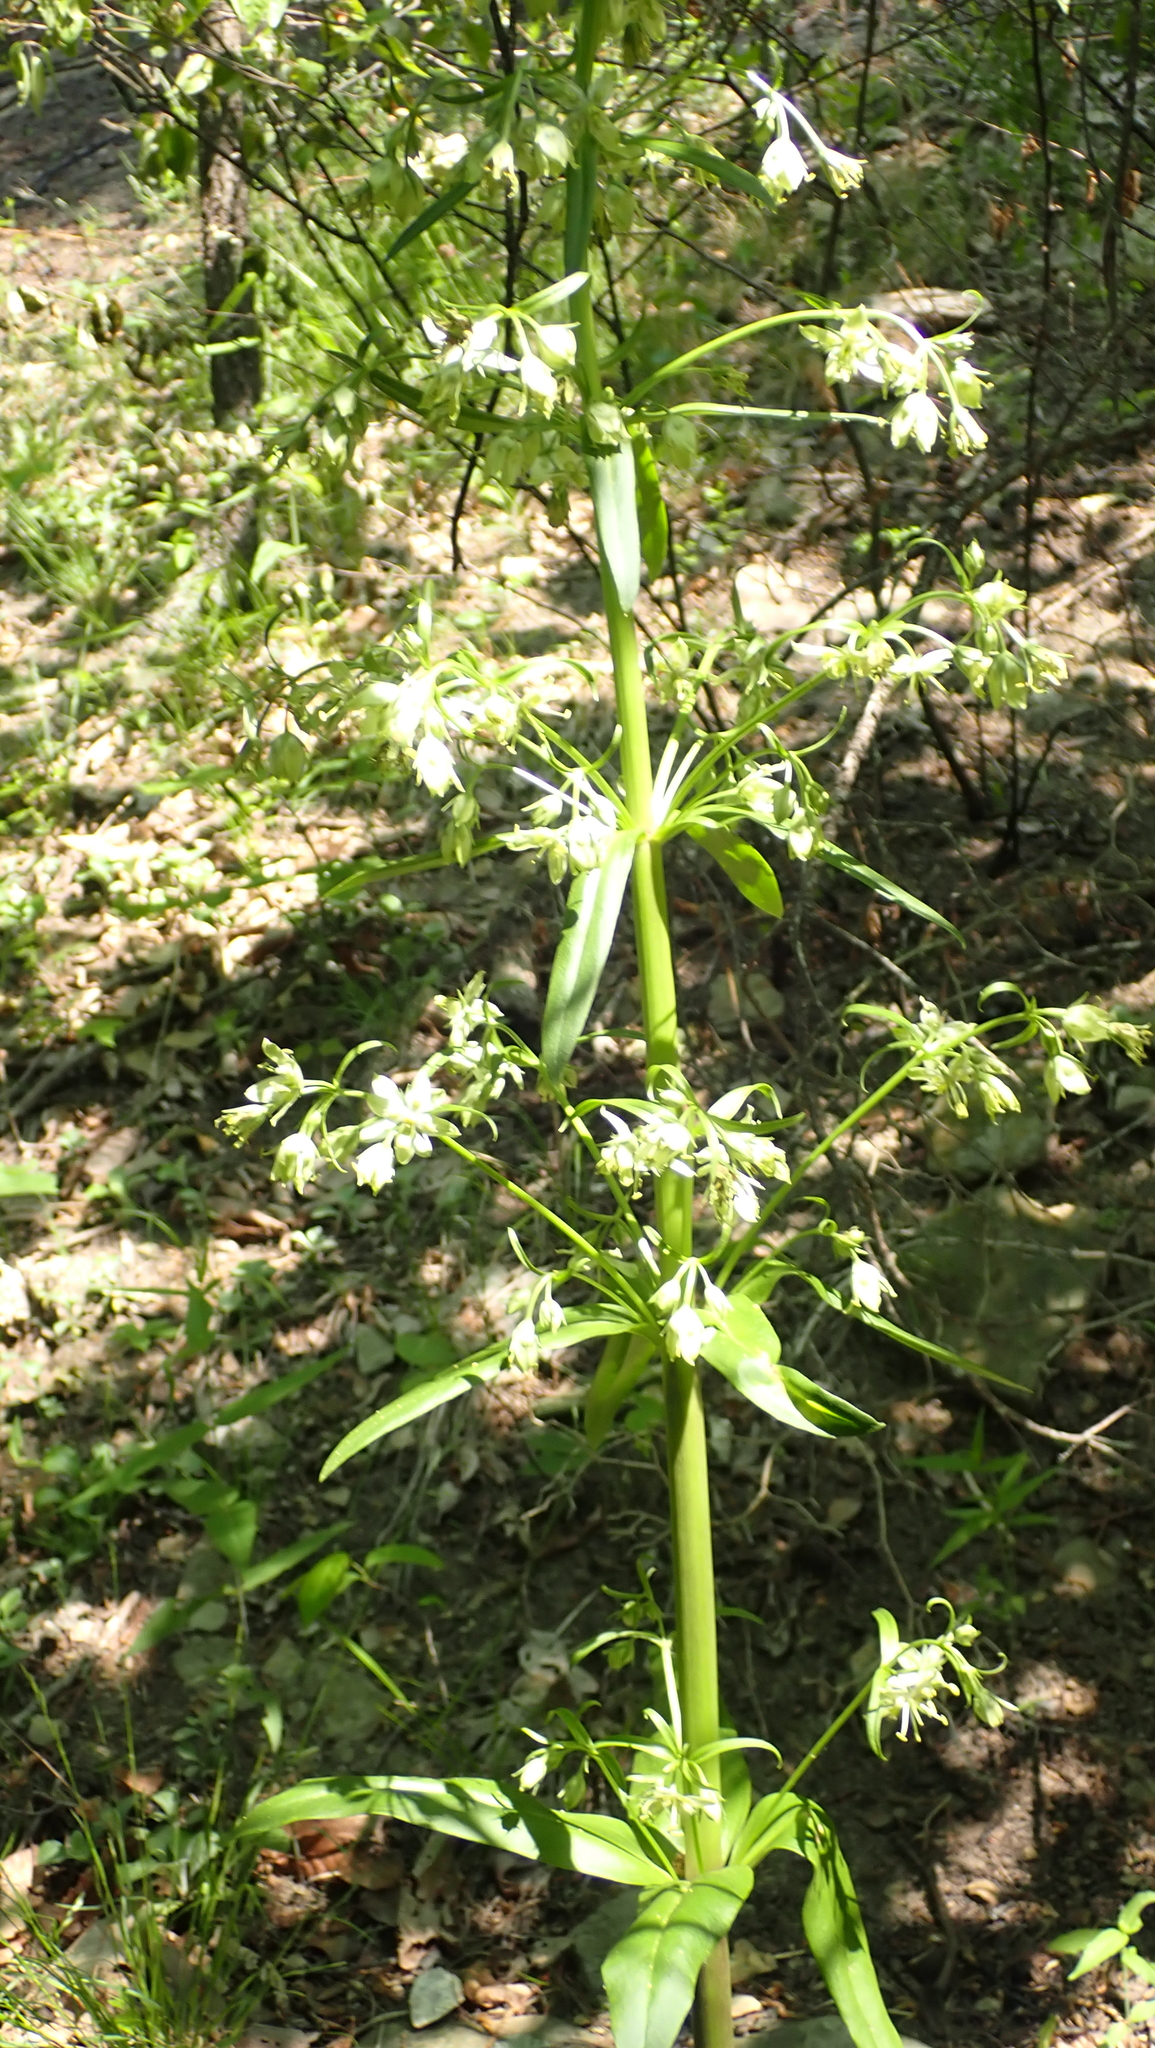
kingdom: Plantae
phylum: Tracheophyta
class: Magnoliopsida
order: Gentianales
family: Gentianaceae
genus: Frasera
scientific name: Frasera caroliniensis
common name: American columbo
